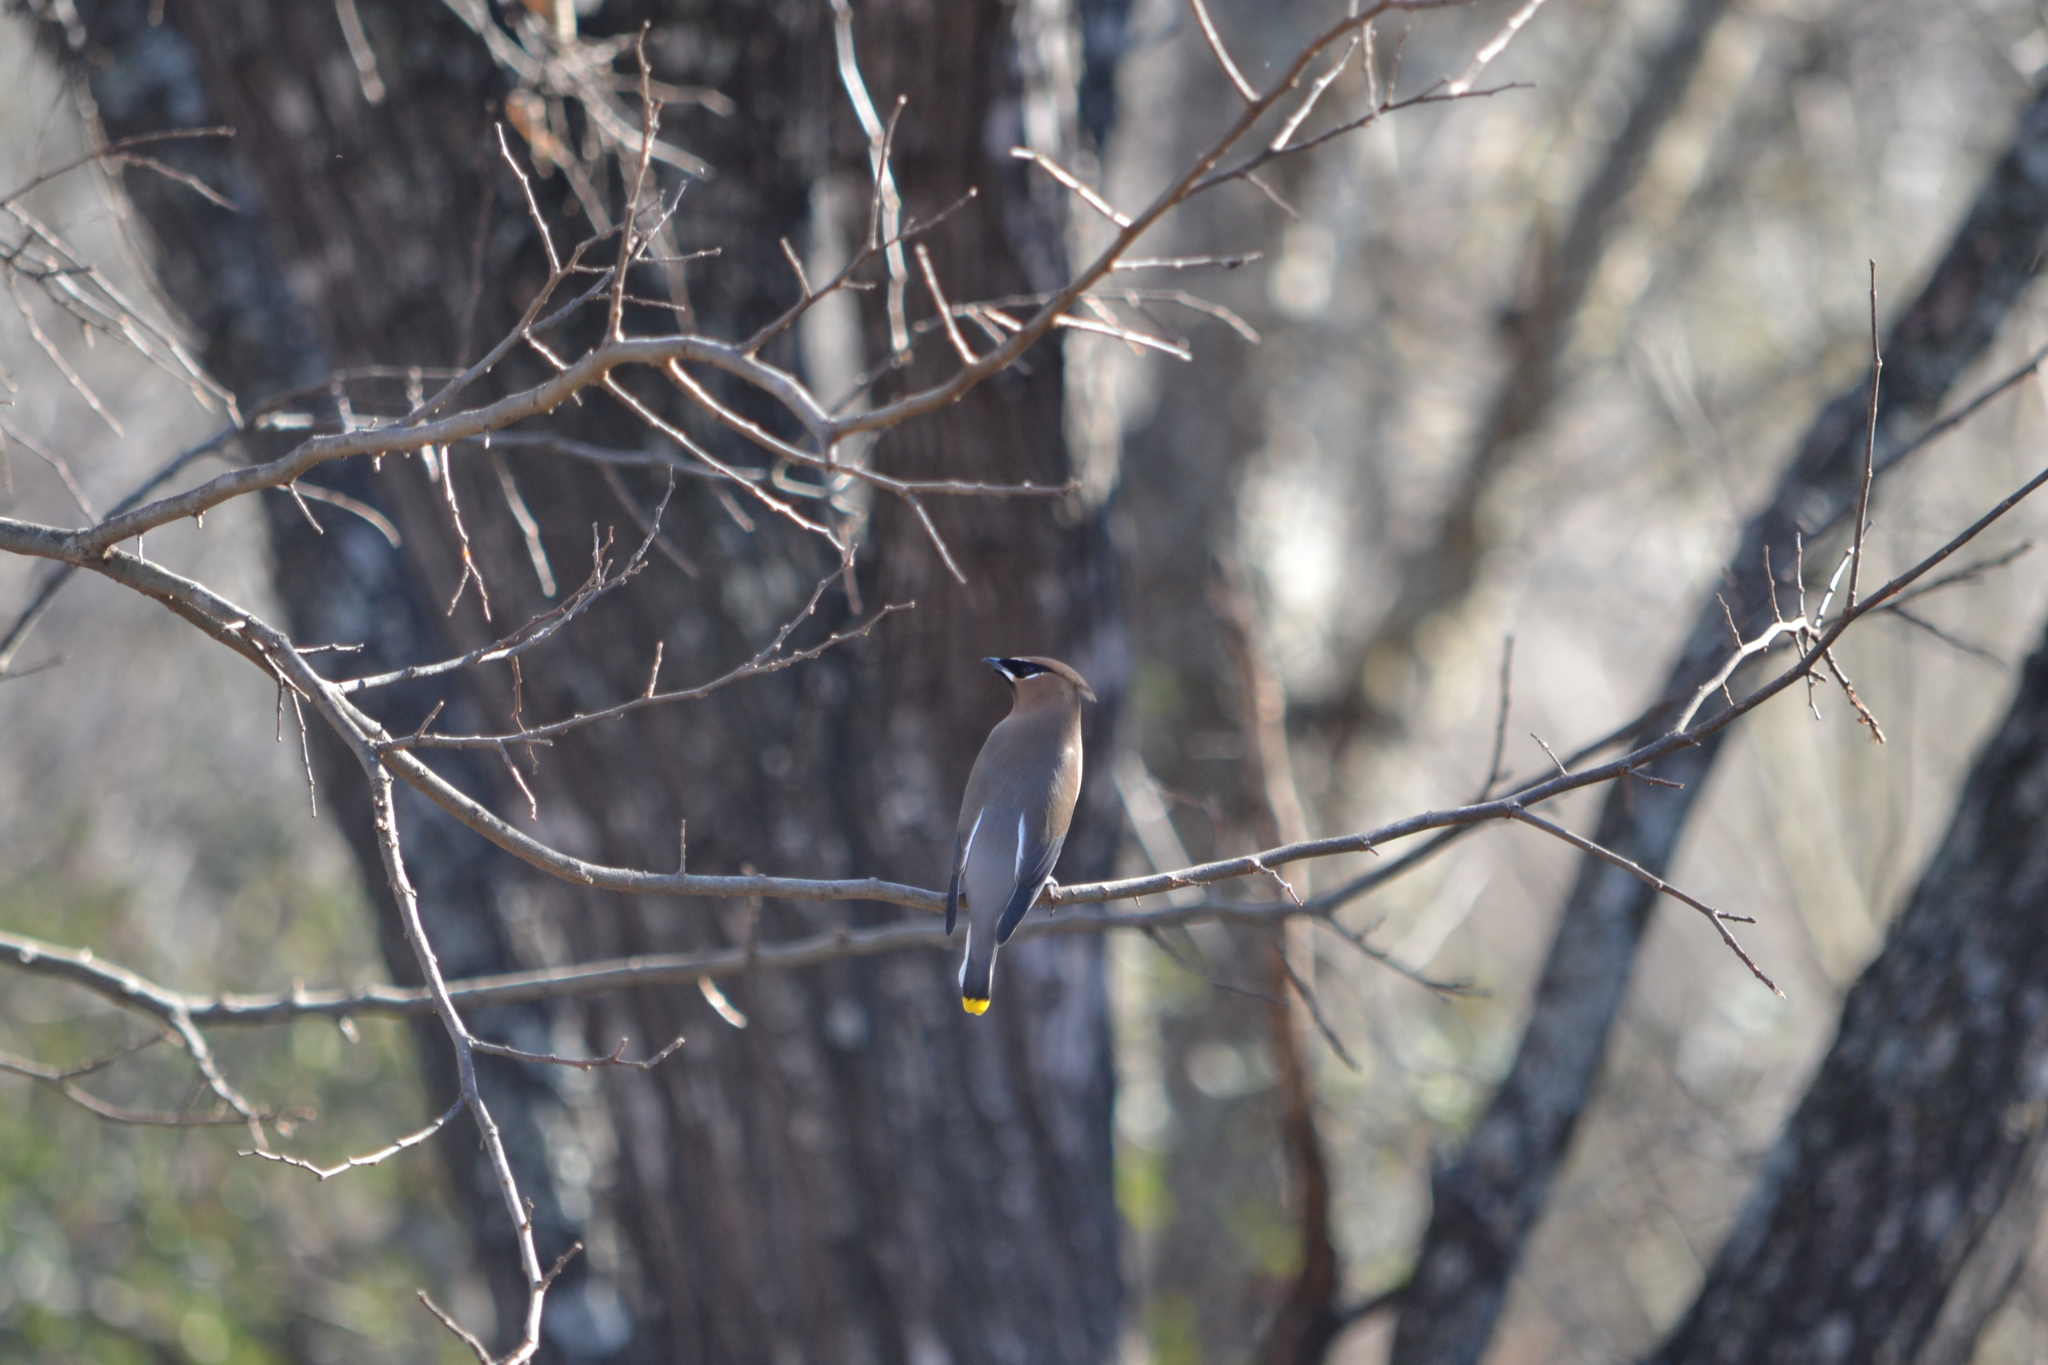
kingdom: Animalia
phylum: Chordata
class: Aves
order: Passeriformes
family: Bombycillidae
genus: Bombycilla
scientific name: Bombycilla cedrorum
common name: Cedar waxwing
